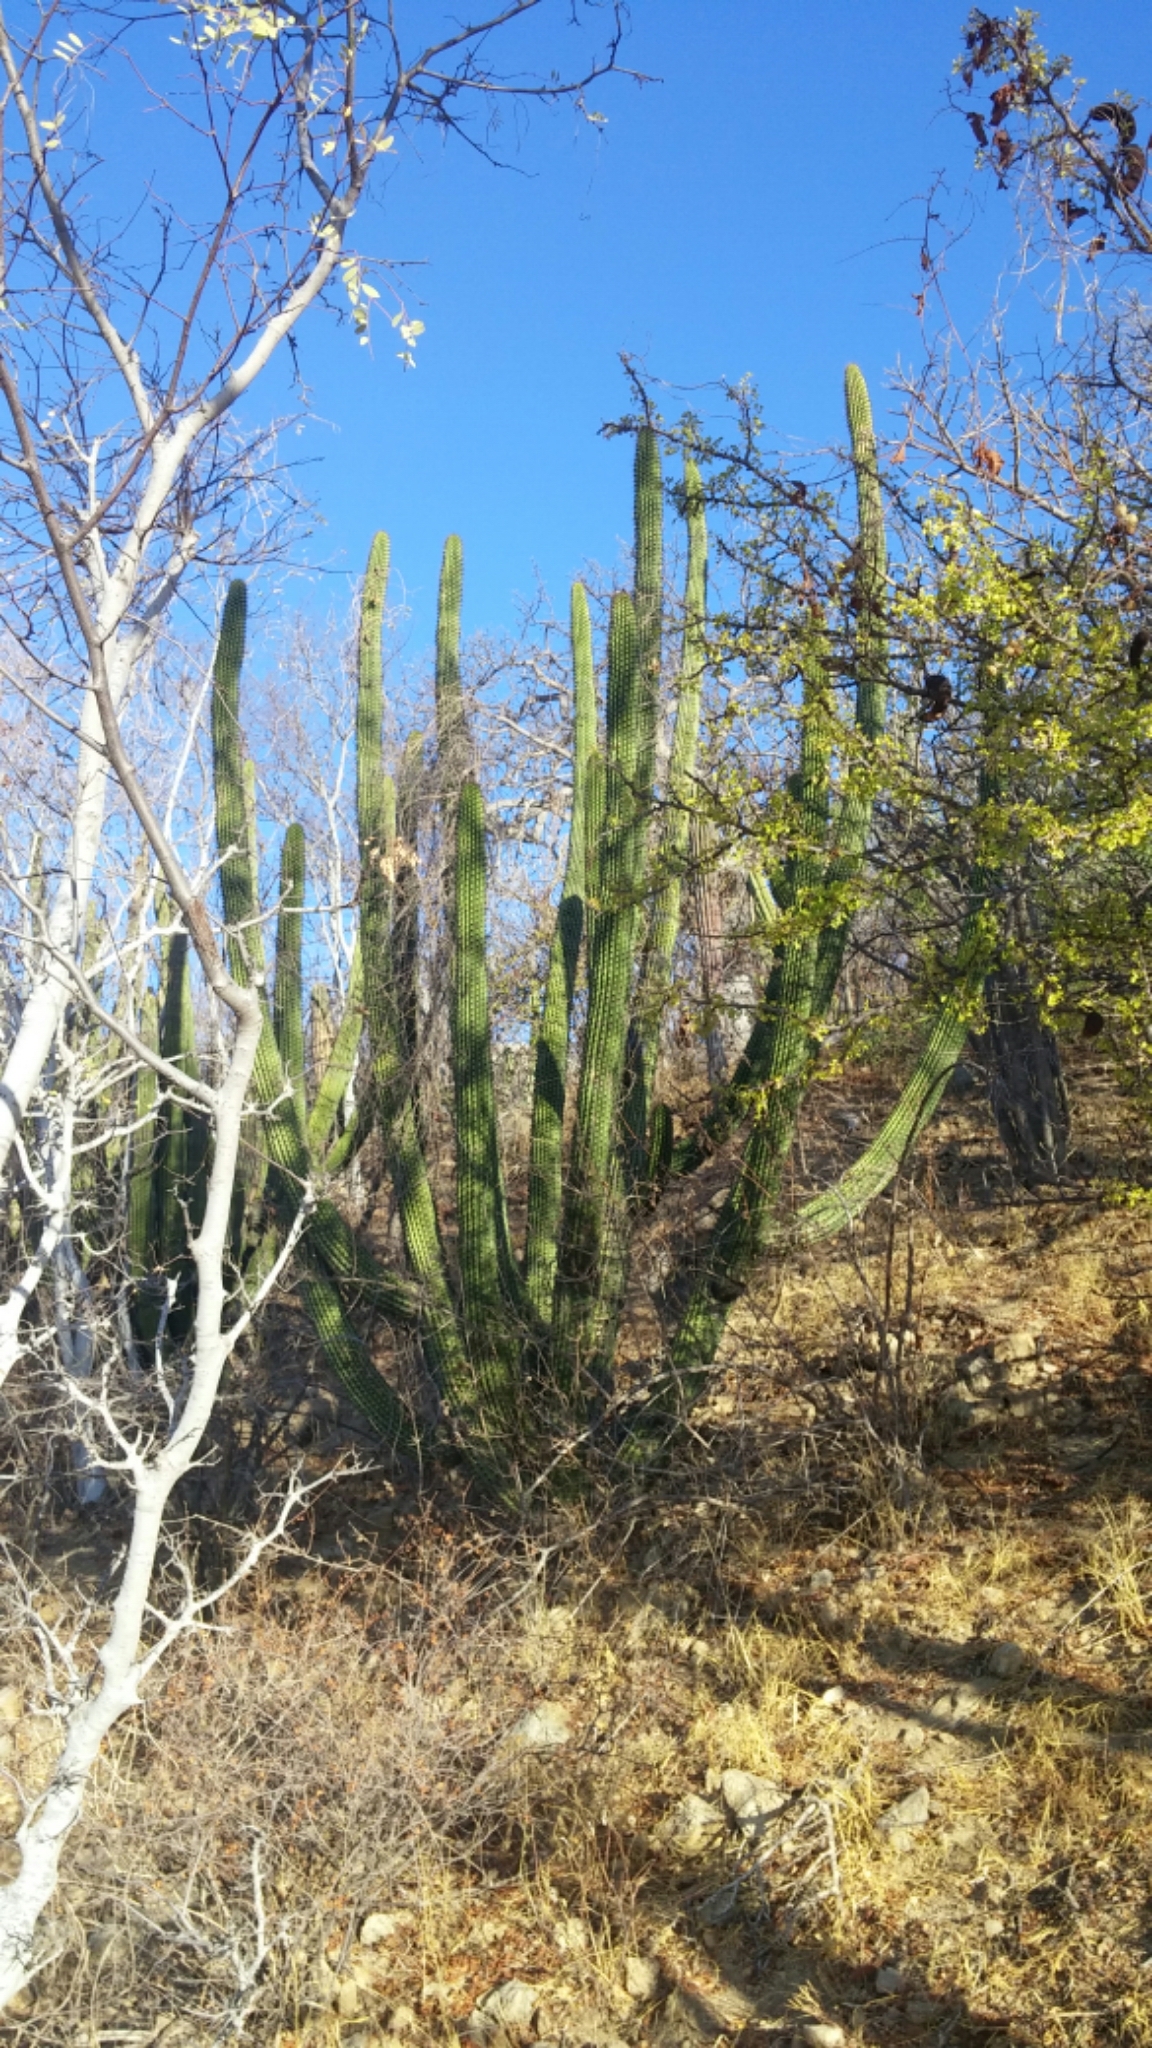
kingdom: Plantae
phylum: Tracheophyta
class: Magnoliopsida
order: Caryophyllales
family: Cactaceae
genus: Stenocereus
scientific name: Stenocereus thurberi
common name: Organ pipe cactus
